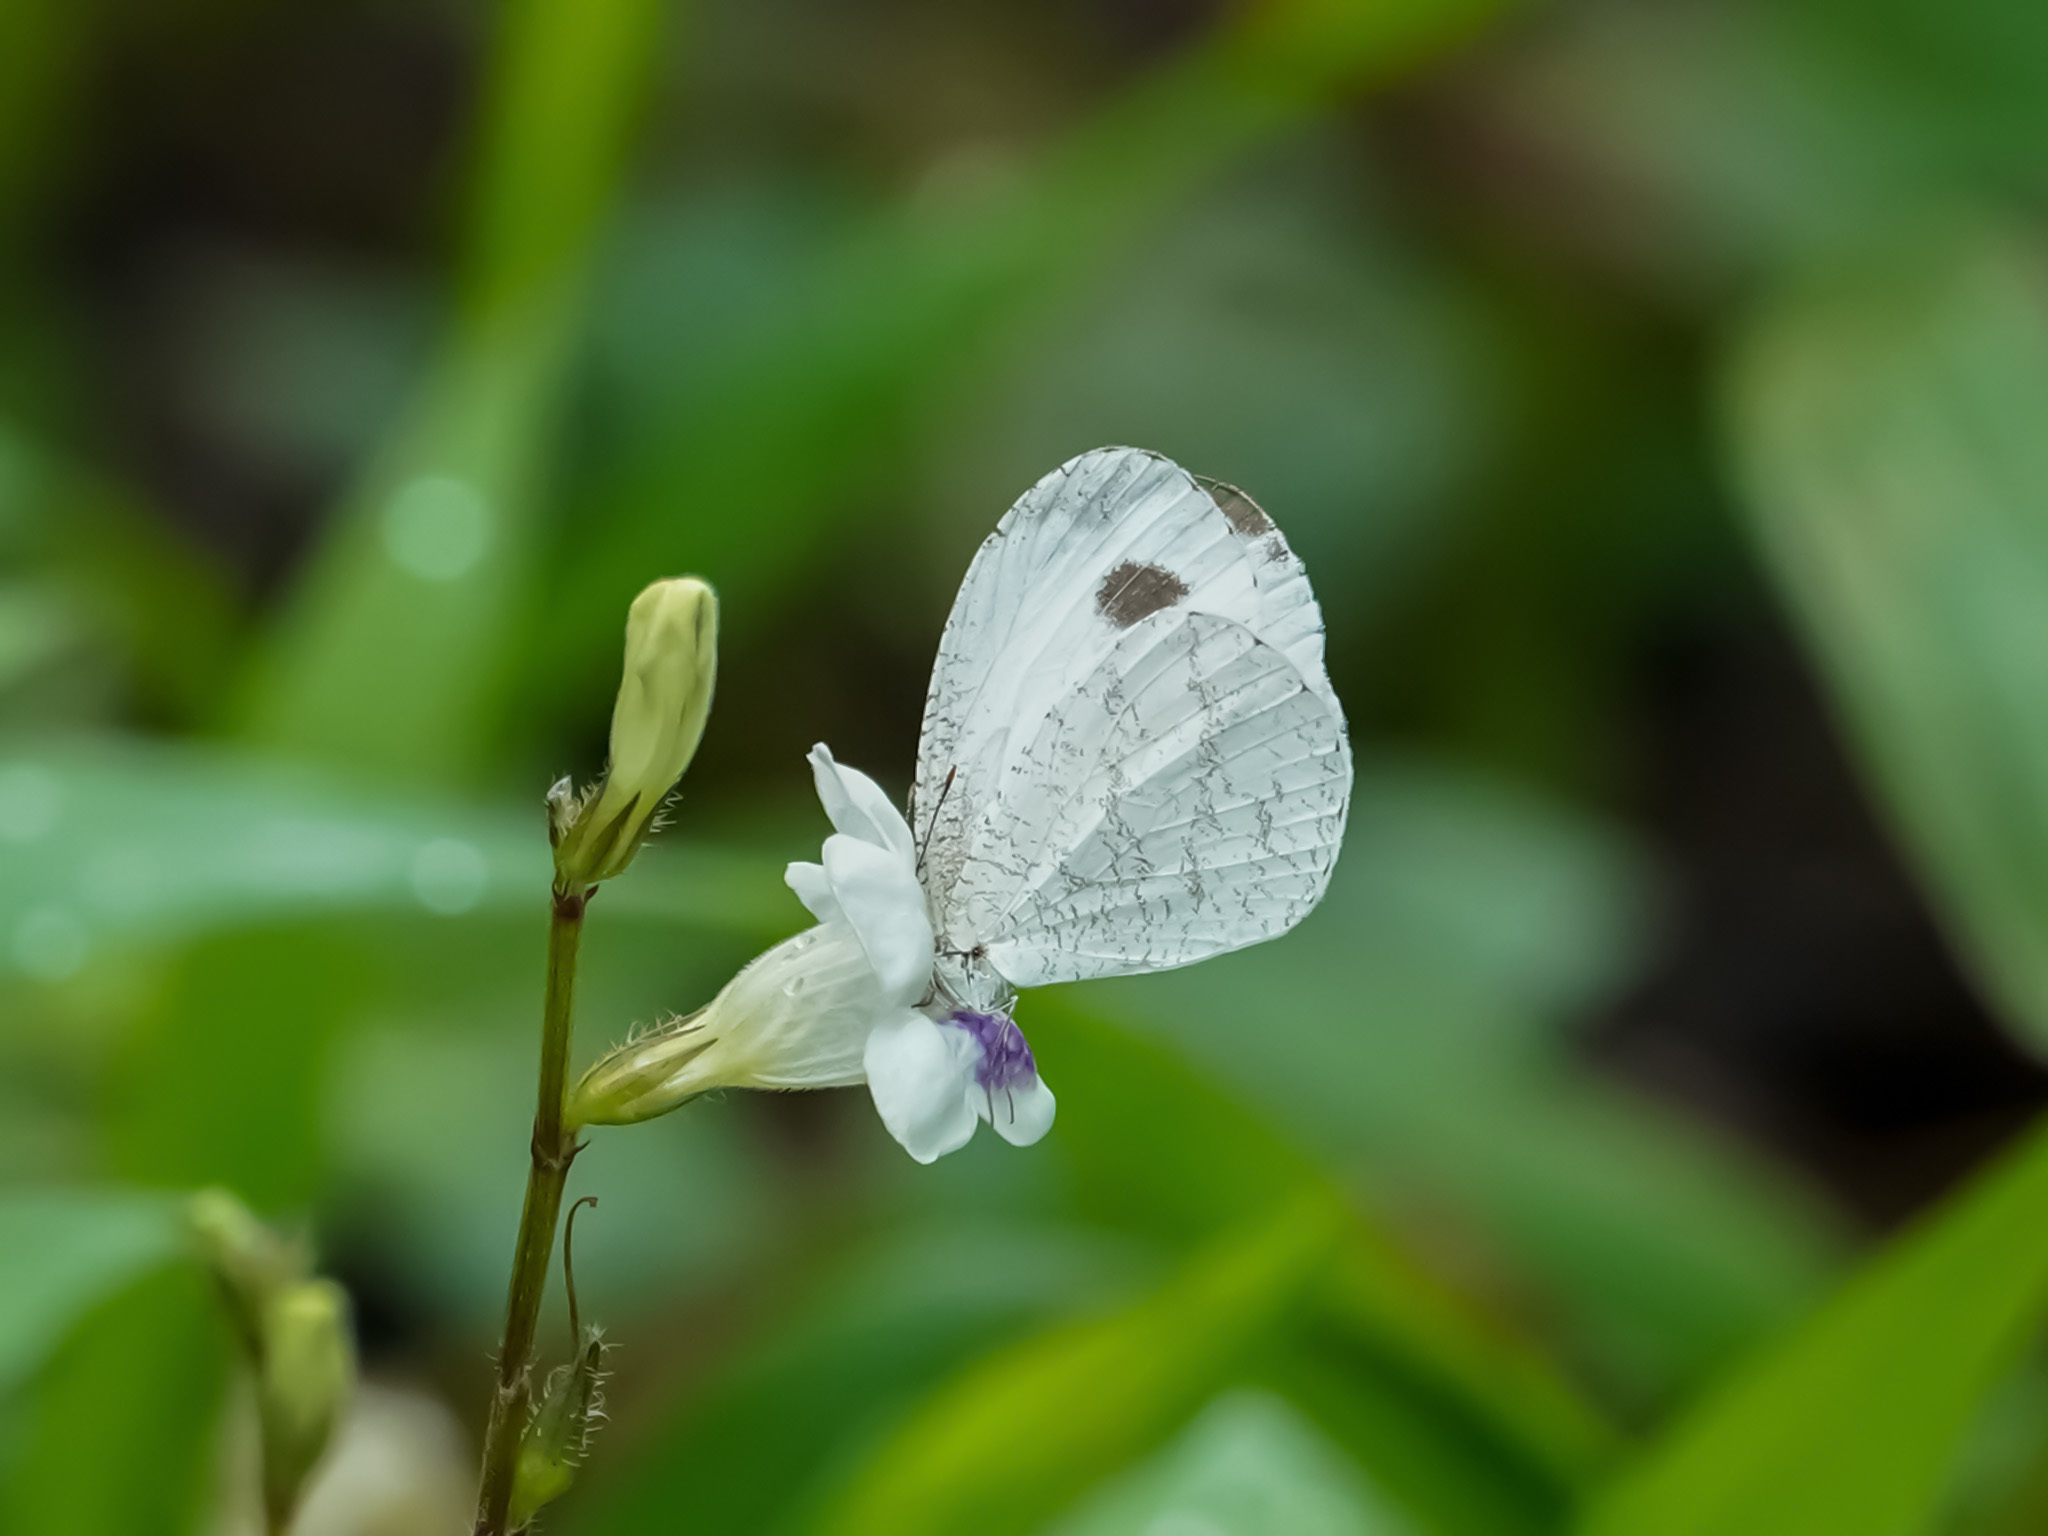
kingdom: Animalia
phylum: Arthropoda
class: Insecta
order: Lepidoptera
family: Pieridae
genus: Leptosia
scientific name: Leptosia nina
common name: Psyche
